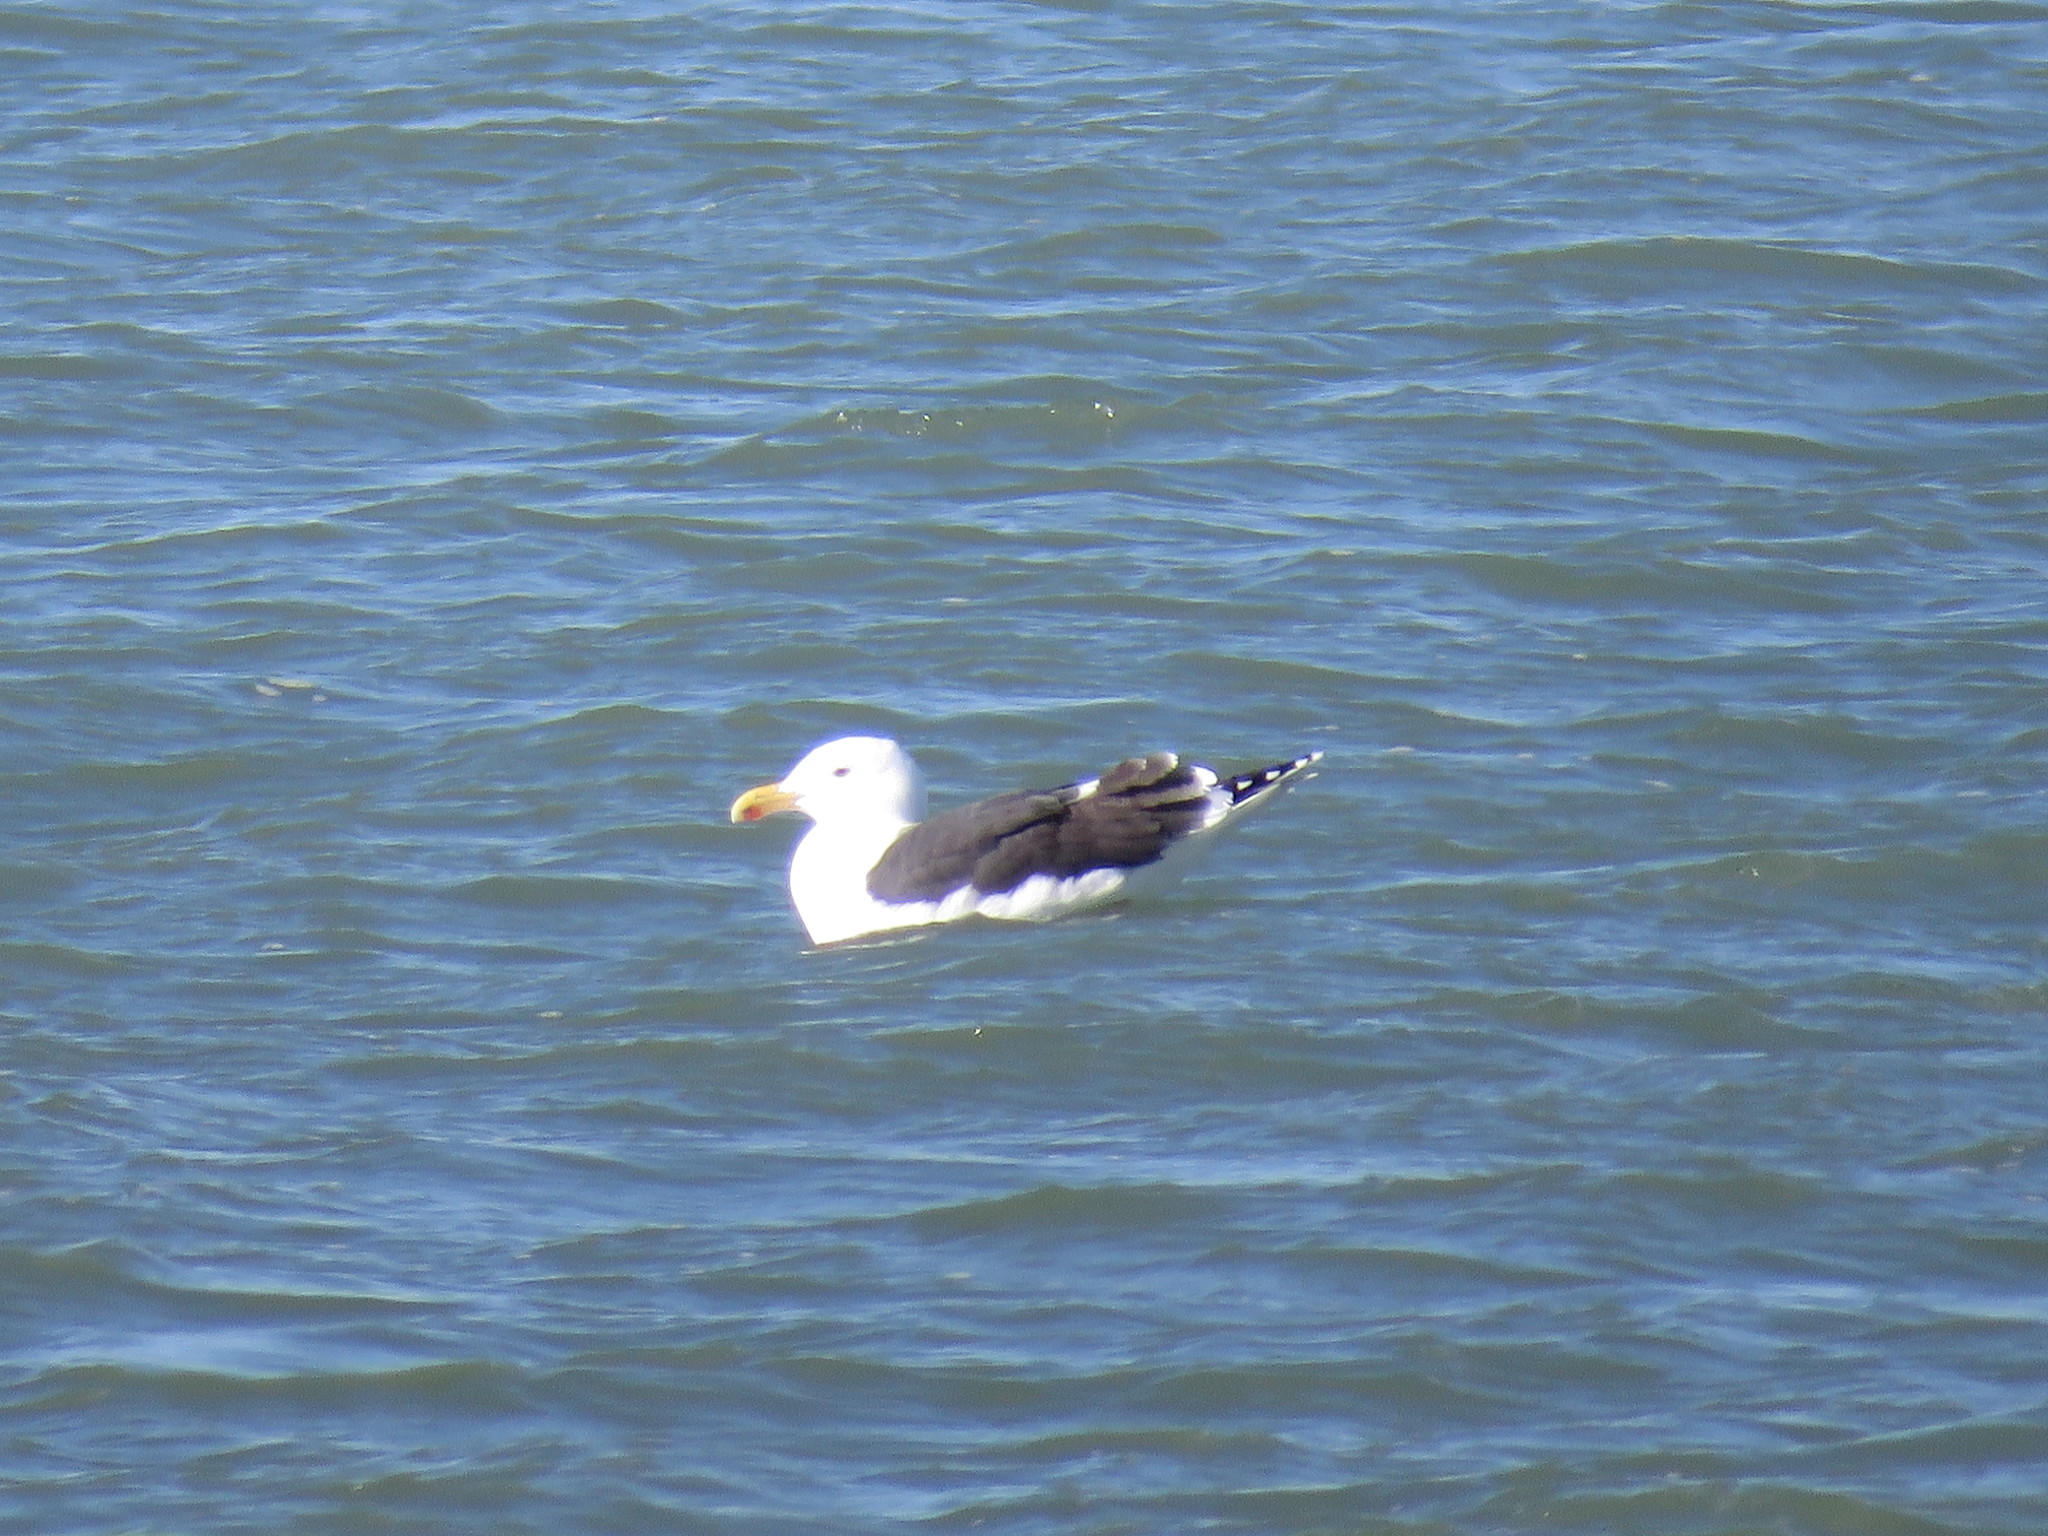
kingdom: Animalia
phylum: Chordata
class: Aves
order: Charadriiformes
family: Laridae
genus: Larus
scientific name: Larus marinus
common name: Great black-backed gull
